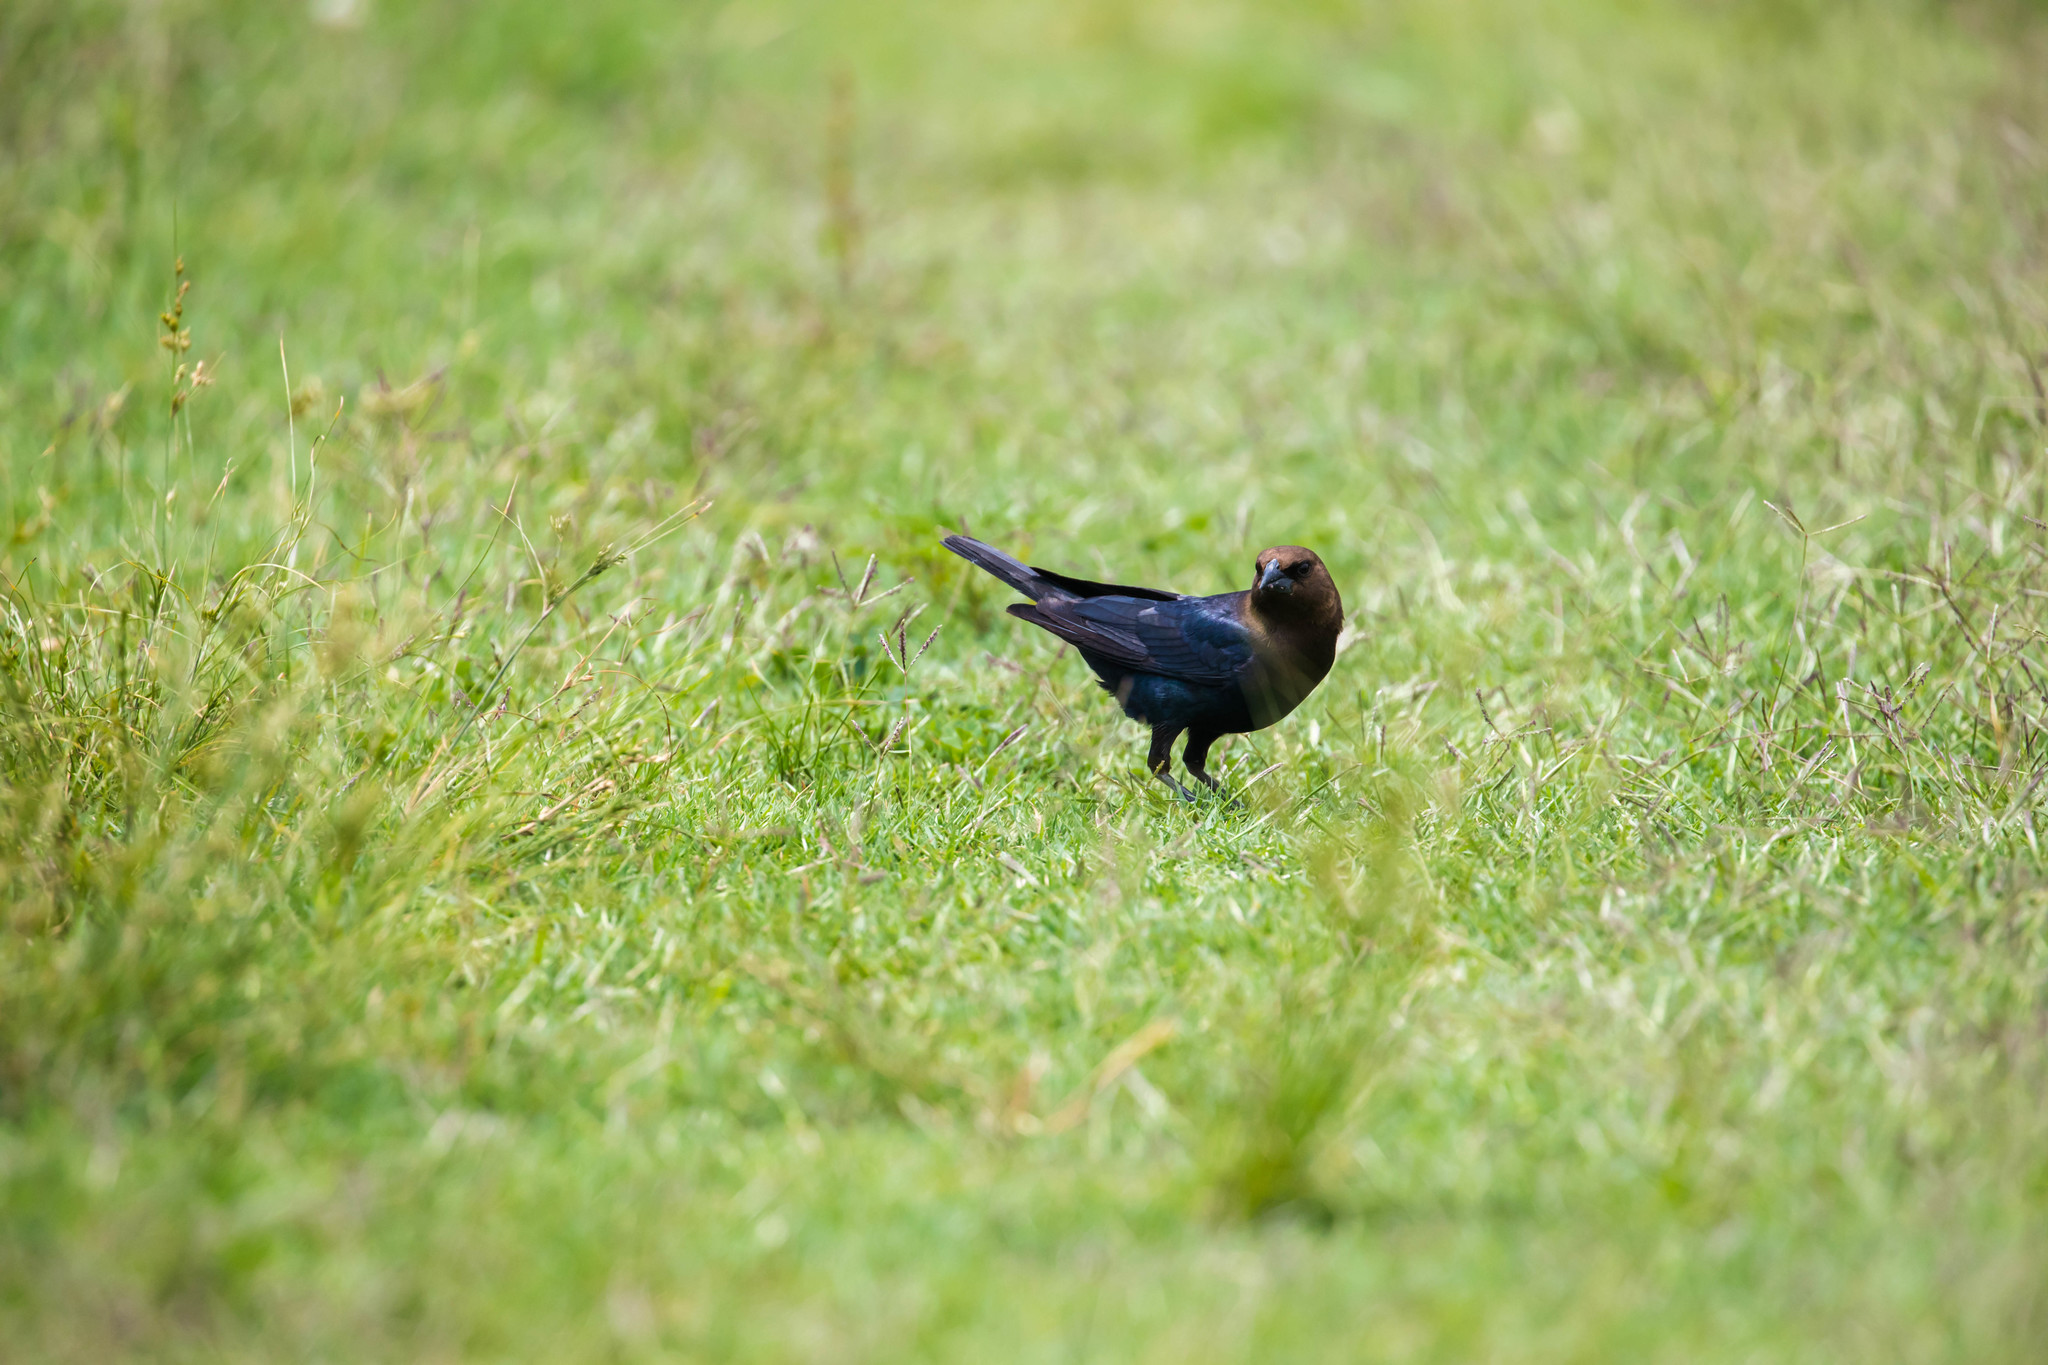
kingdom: Animalia
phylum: Chordata
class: Aves
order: Passeriformes
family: Icteridae
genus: Molothrus
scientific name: Molothrus ater
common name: Brown-headed cowbird
